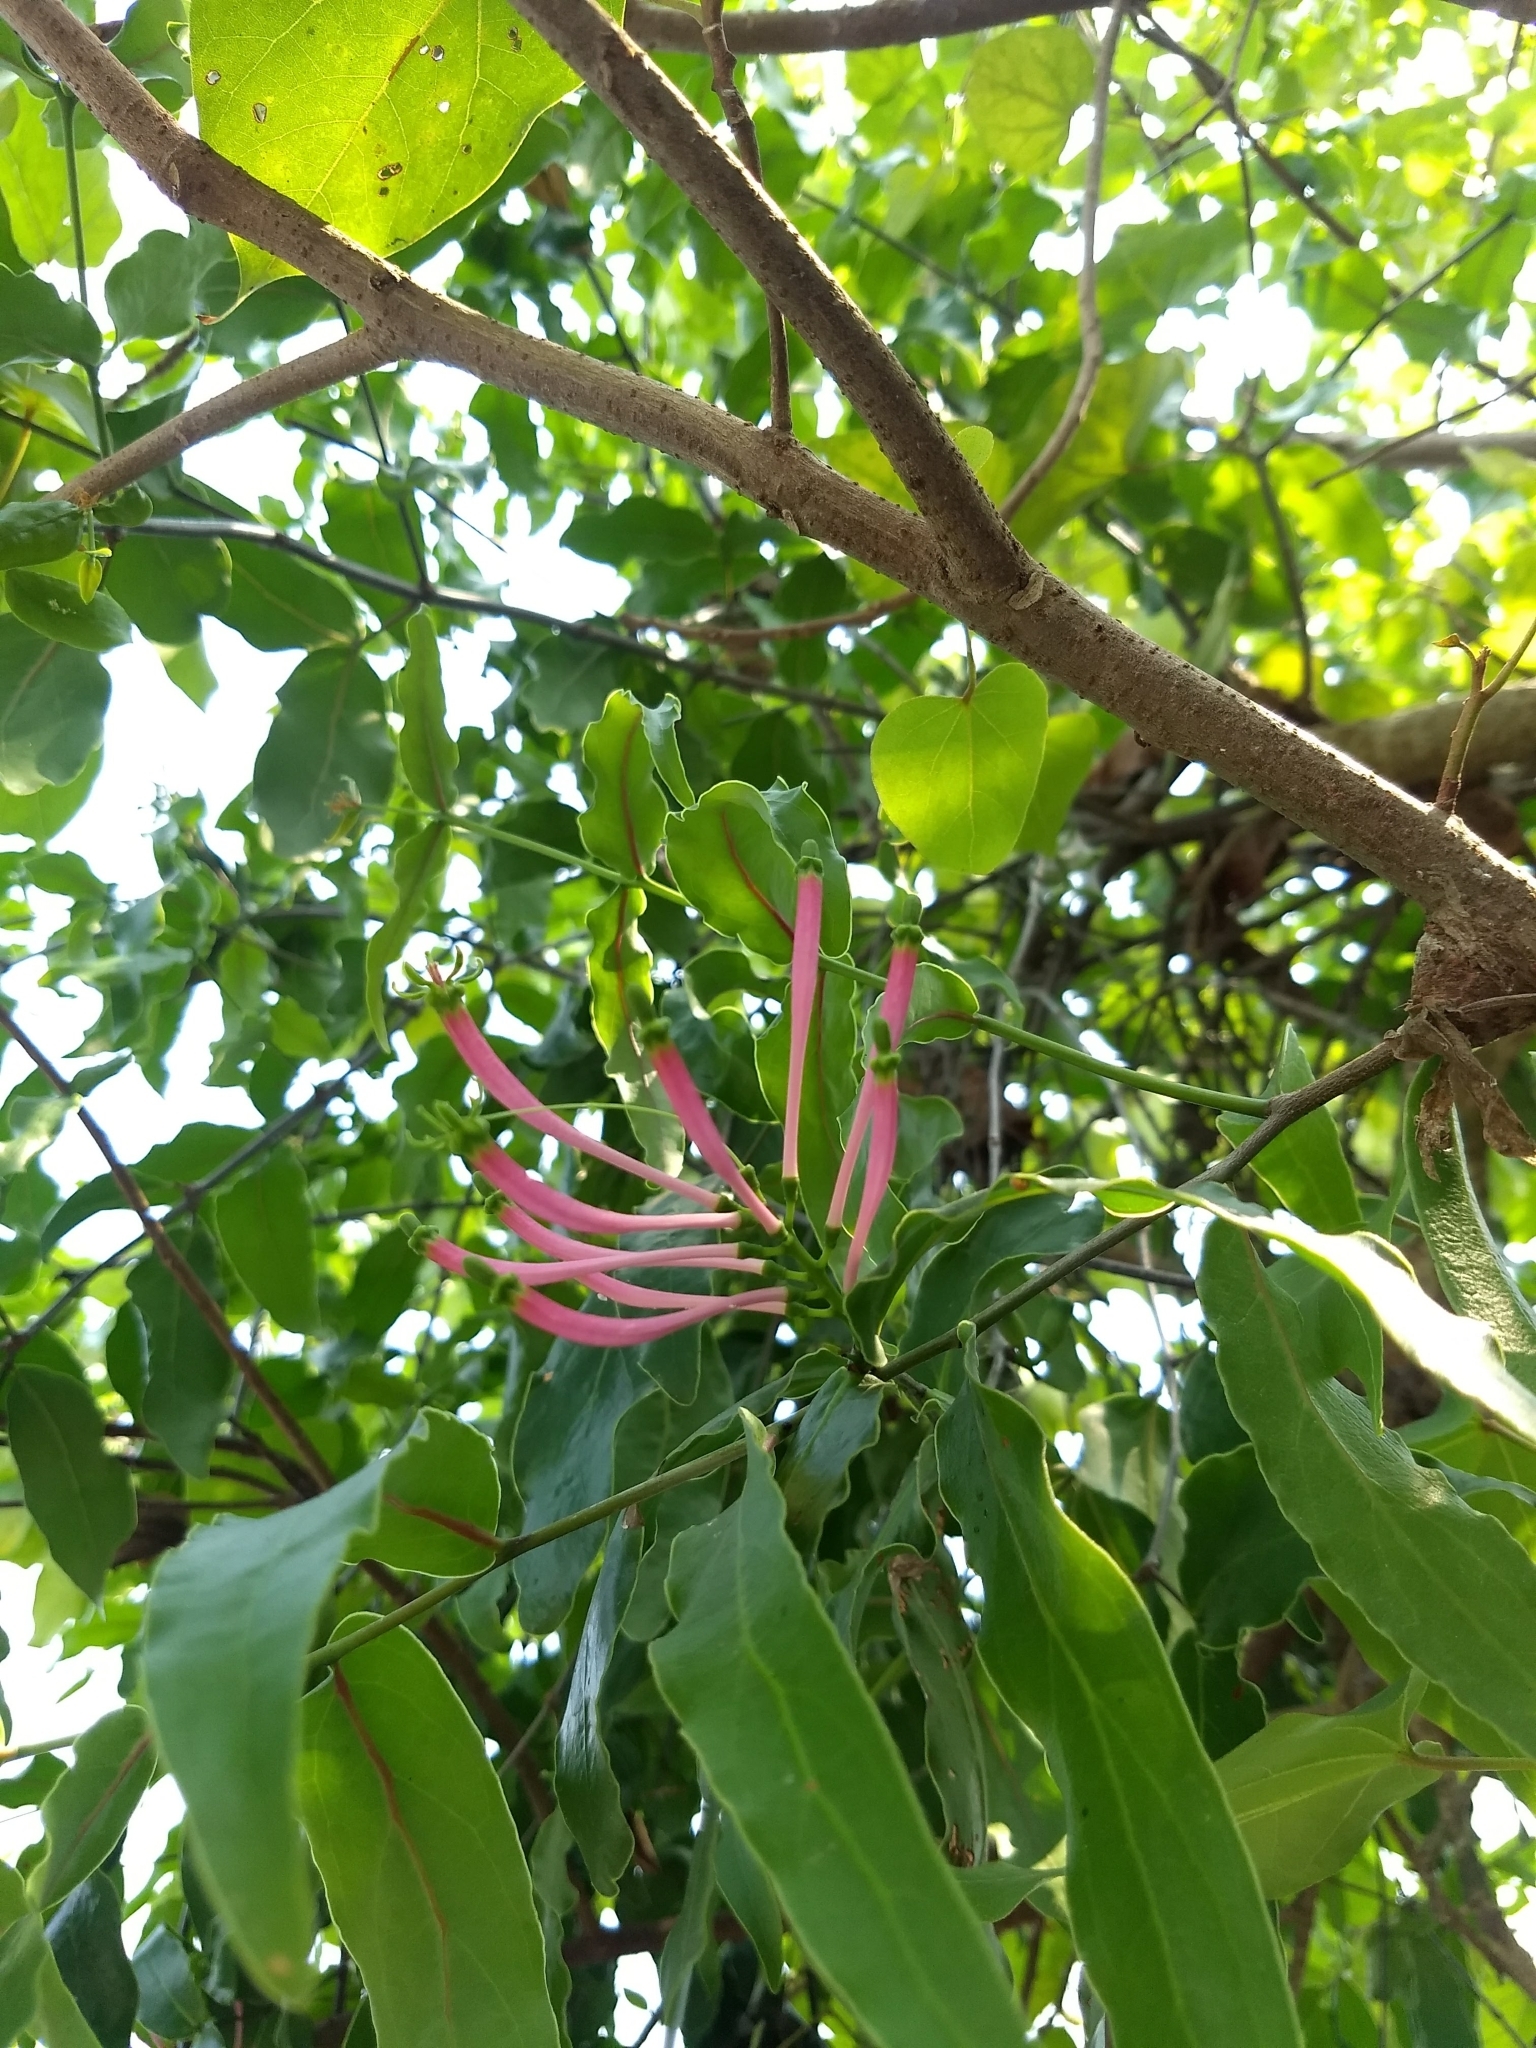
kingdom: Plantae
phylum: Tracheophyta
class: Magnoliopsida
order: Santalales
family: Loranthaceae
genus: Dendrophthoe
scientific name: Dendrophthoe falcata
